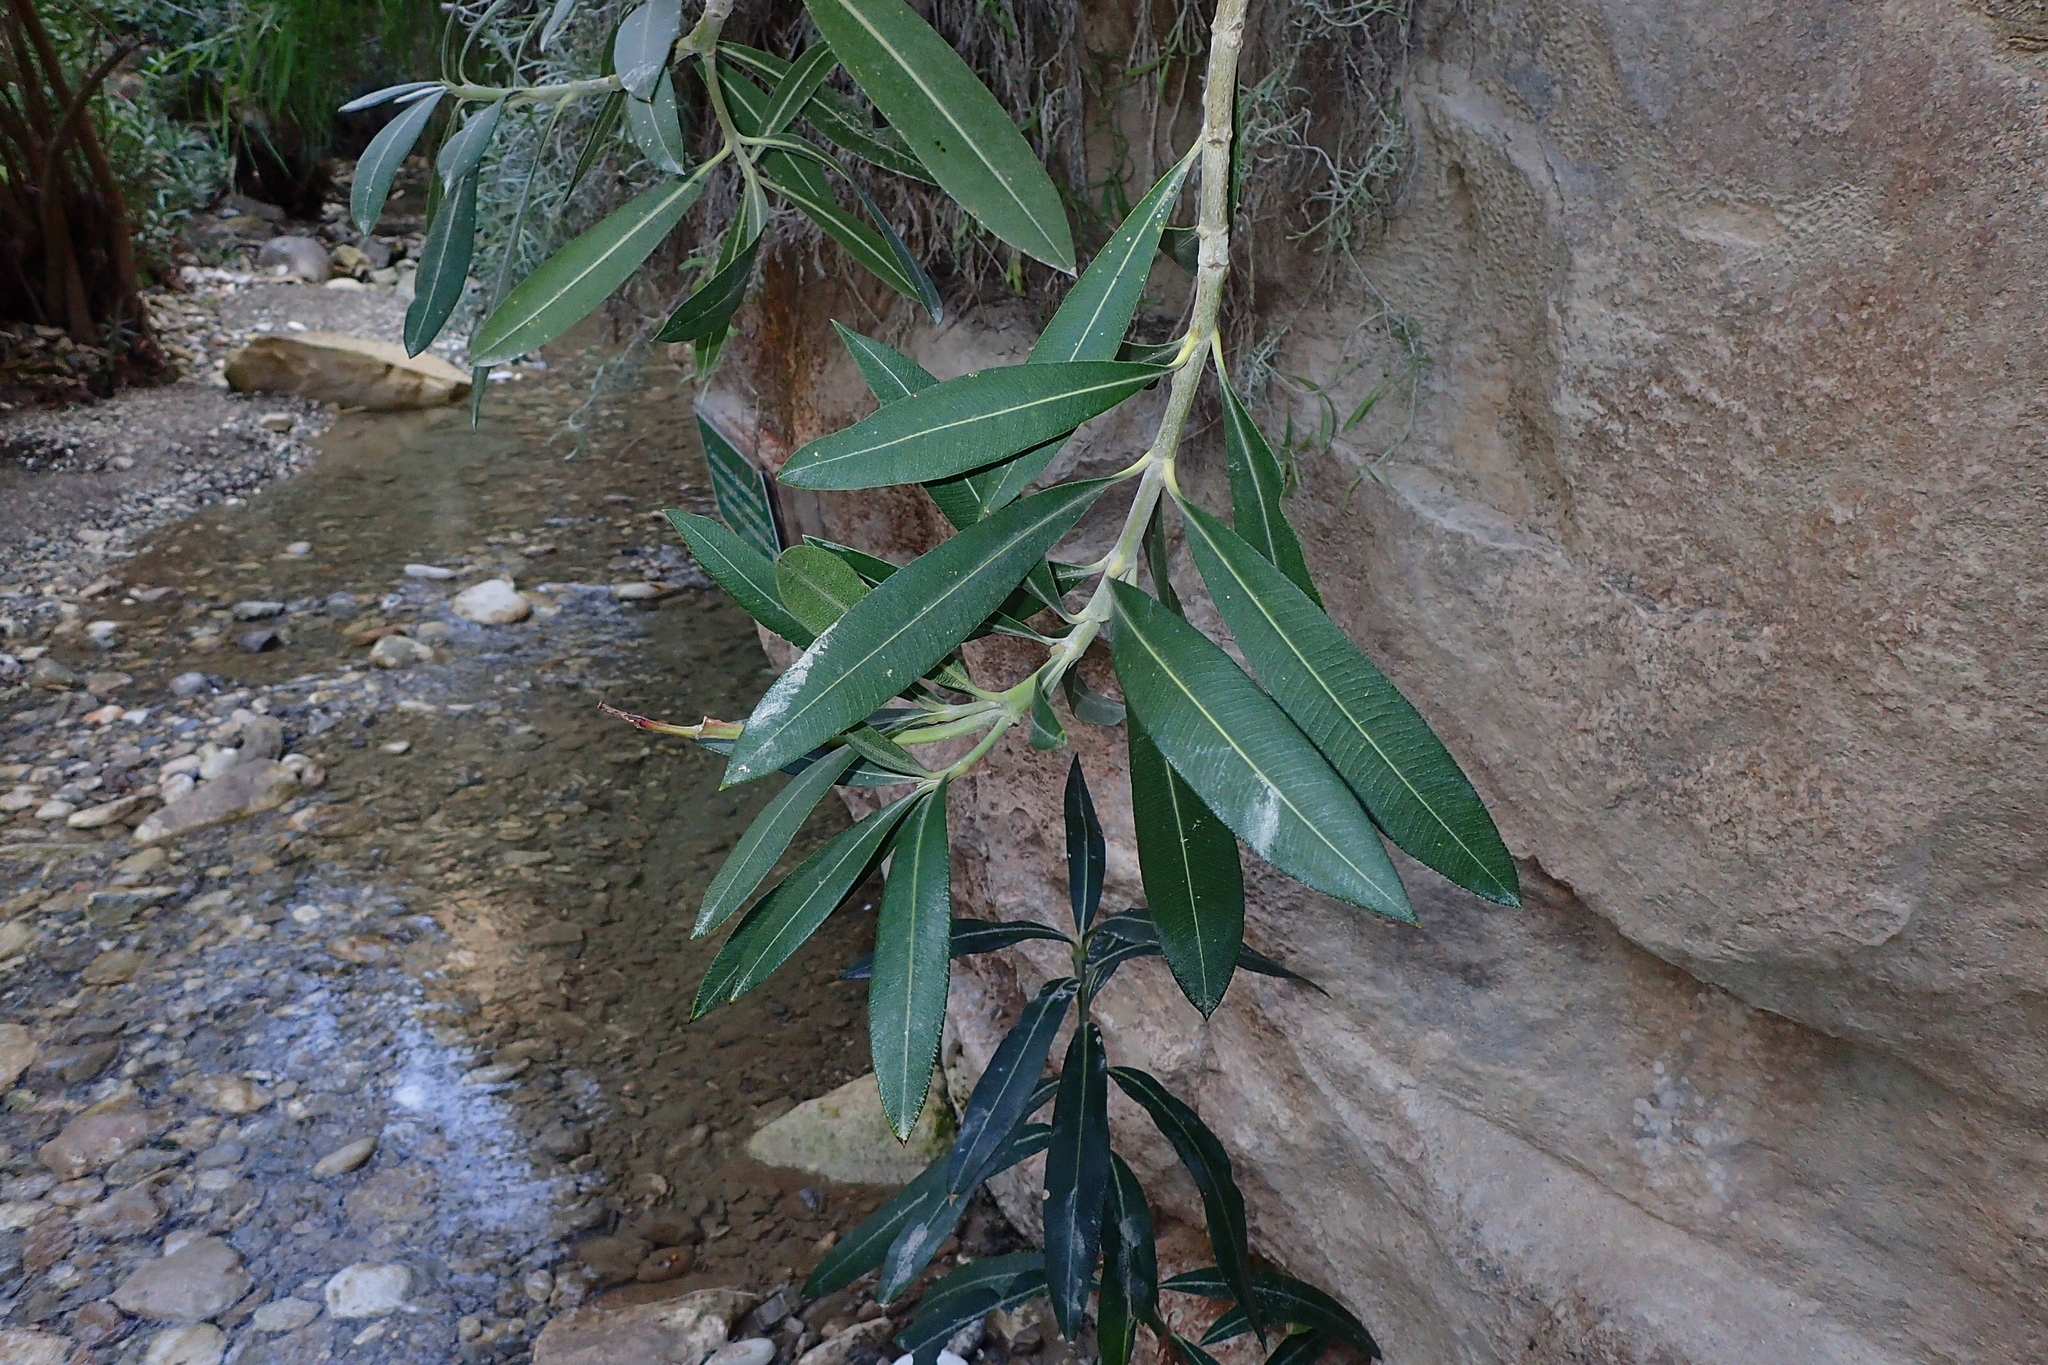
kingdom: Plantae
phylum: Tracheophyta
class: Magnoliopsida
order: Gentianales
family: Apocynaceae
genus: Nerium
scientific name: Nerium oleander
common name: Oleander
